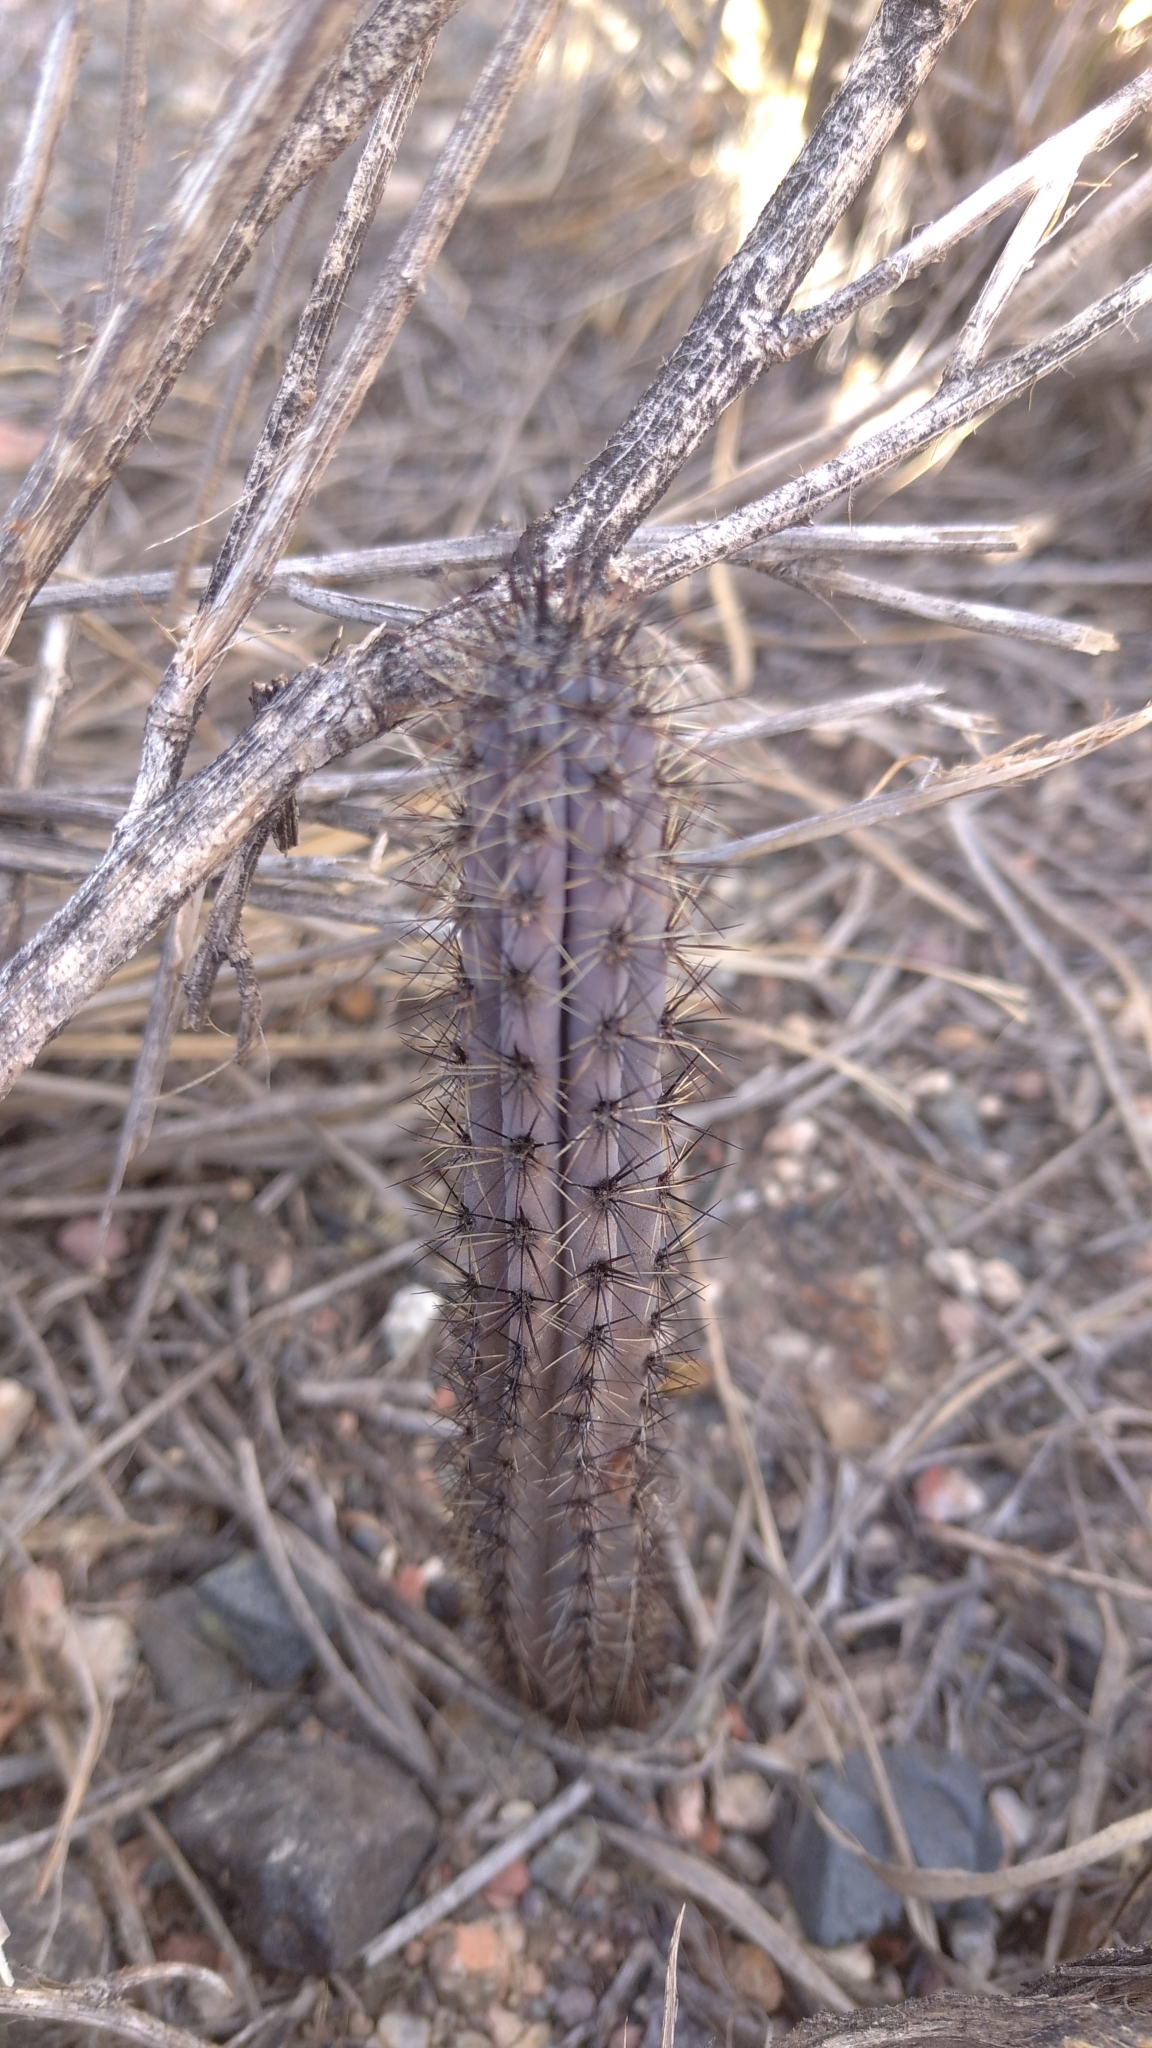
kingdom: Plantae
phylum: Tracheophyta
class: Magnoliopsida
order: Caryophyllales
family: Cactaceae
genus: Cereus
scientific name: Cereus aethiops
